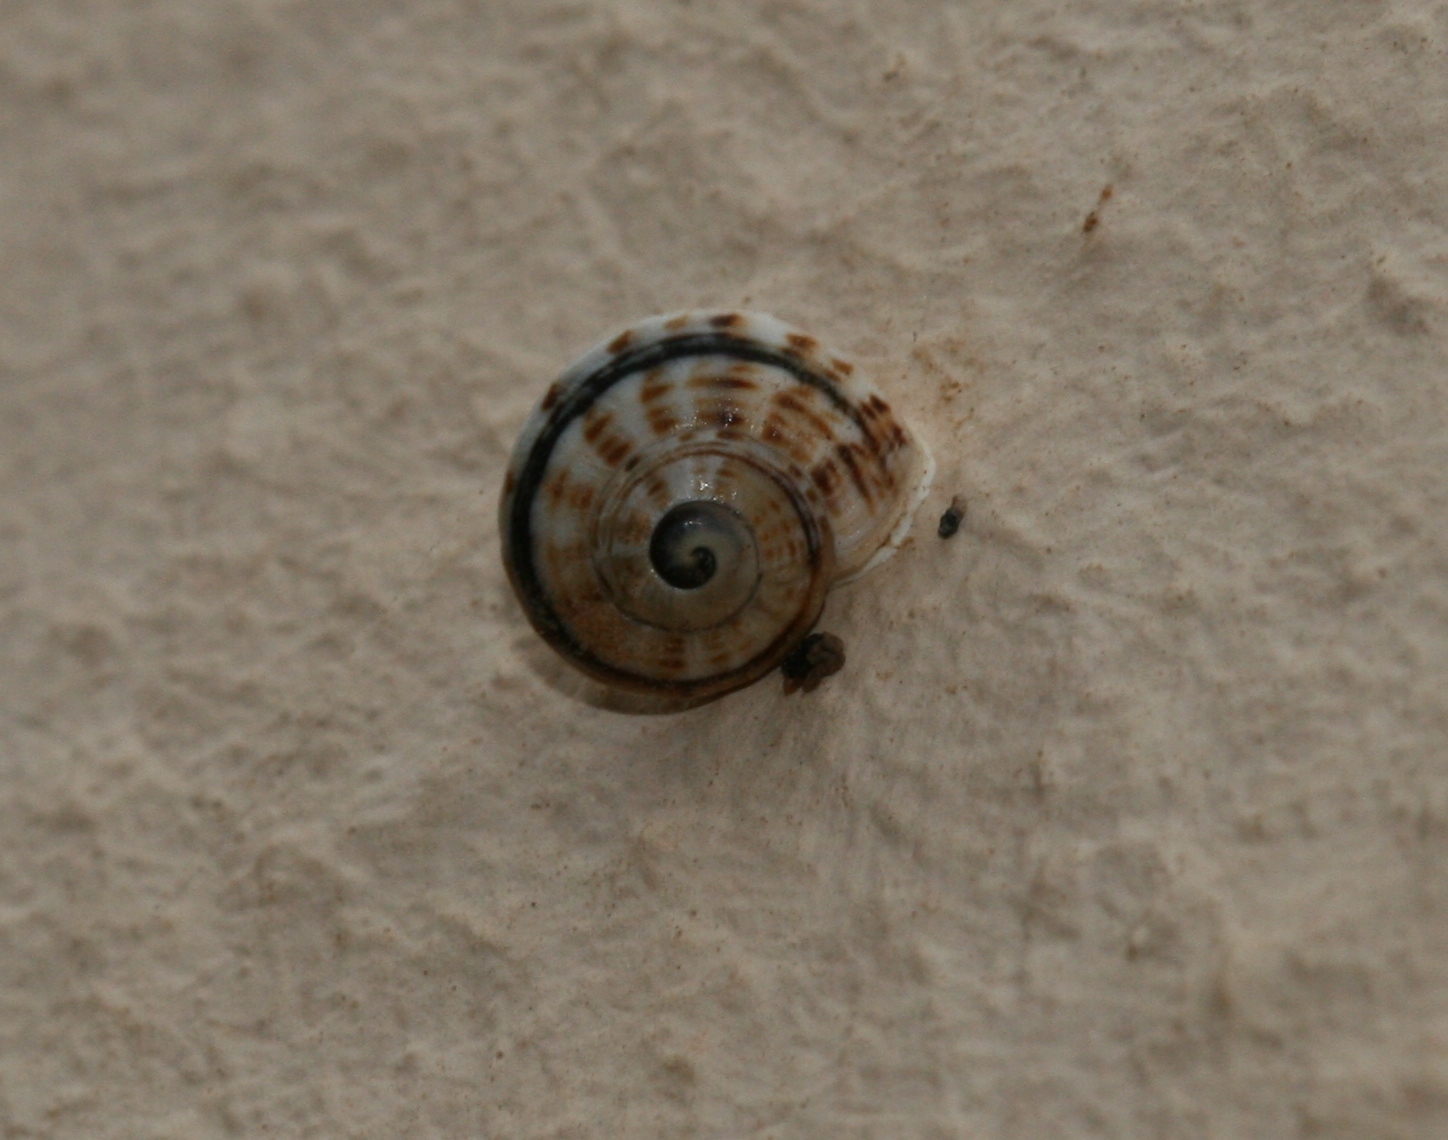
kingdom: Animalia
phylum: Mollusca
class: Gastropoda
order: Stylommatophora
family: Helicidae
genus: Theba
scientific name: Theba geminata
